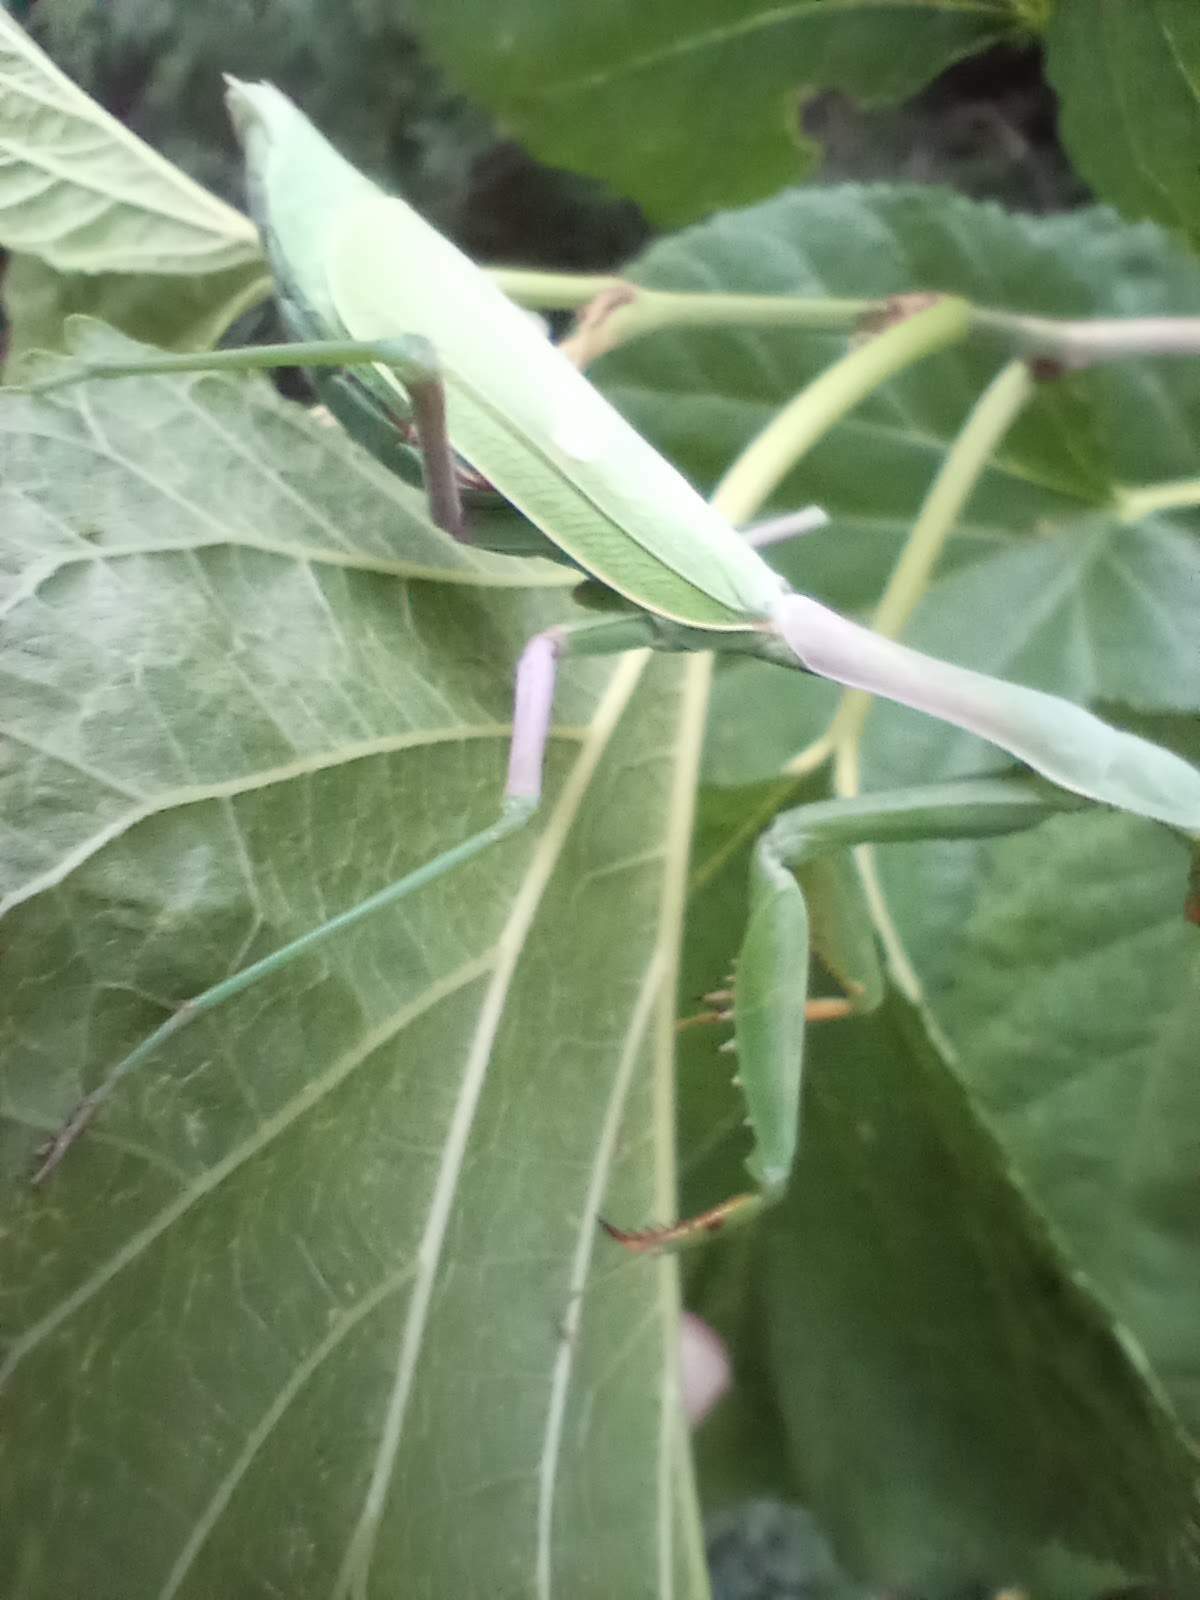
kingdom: Animalia
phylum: Arthropoda
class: Insecta
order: Mantodea
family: Mantidae
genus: Stagmomantis
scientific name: Stagmomantis limbata
